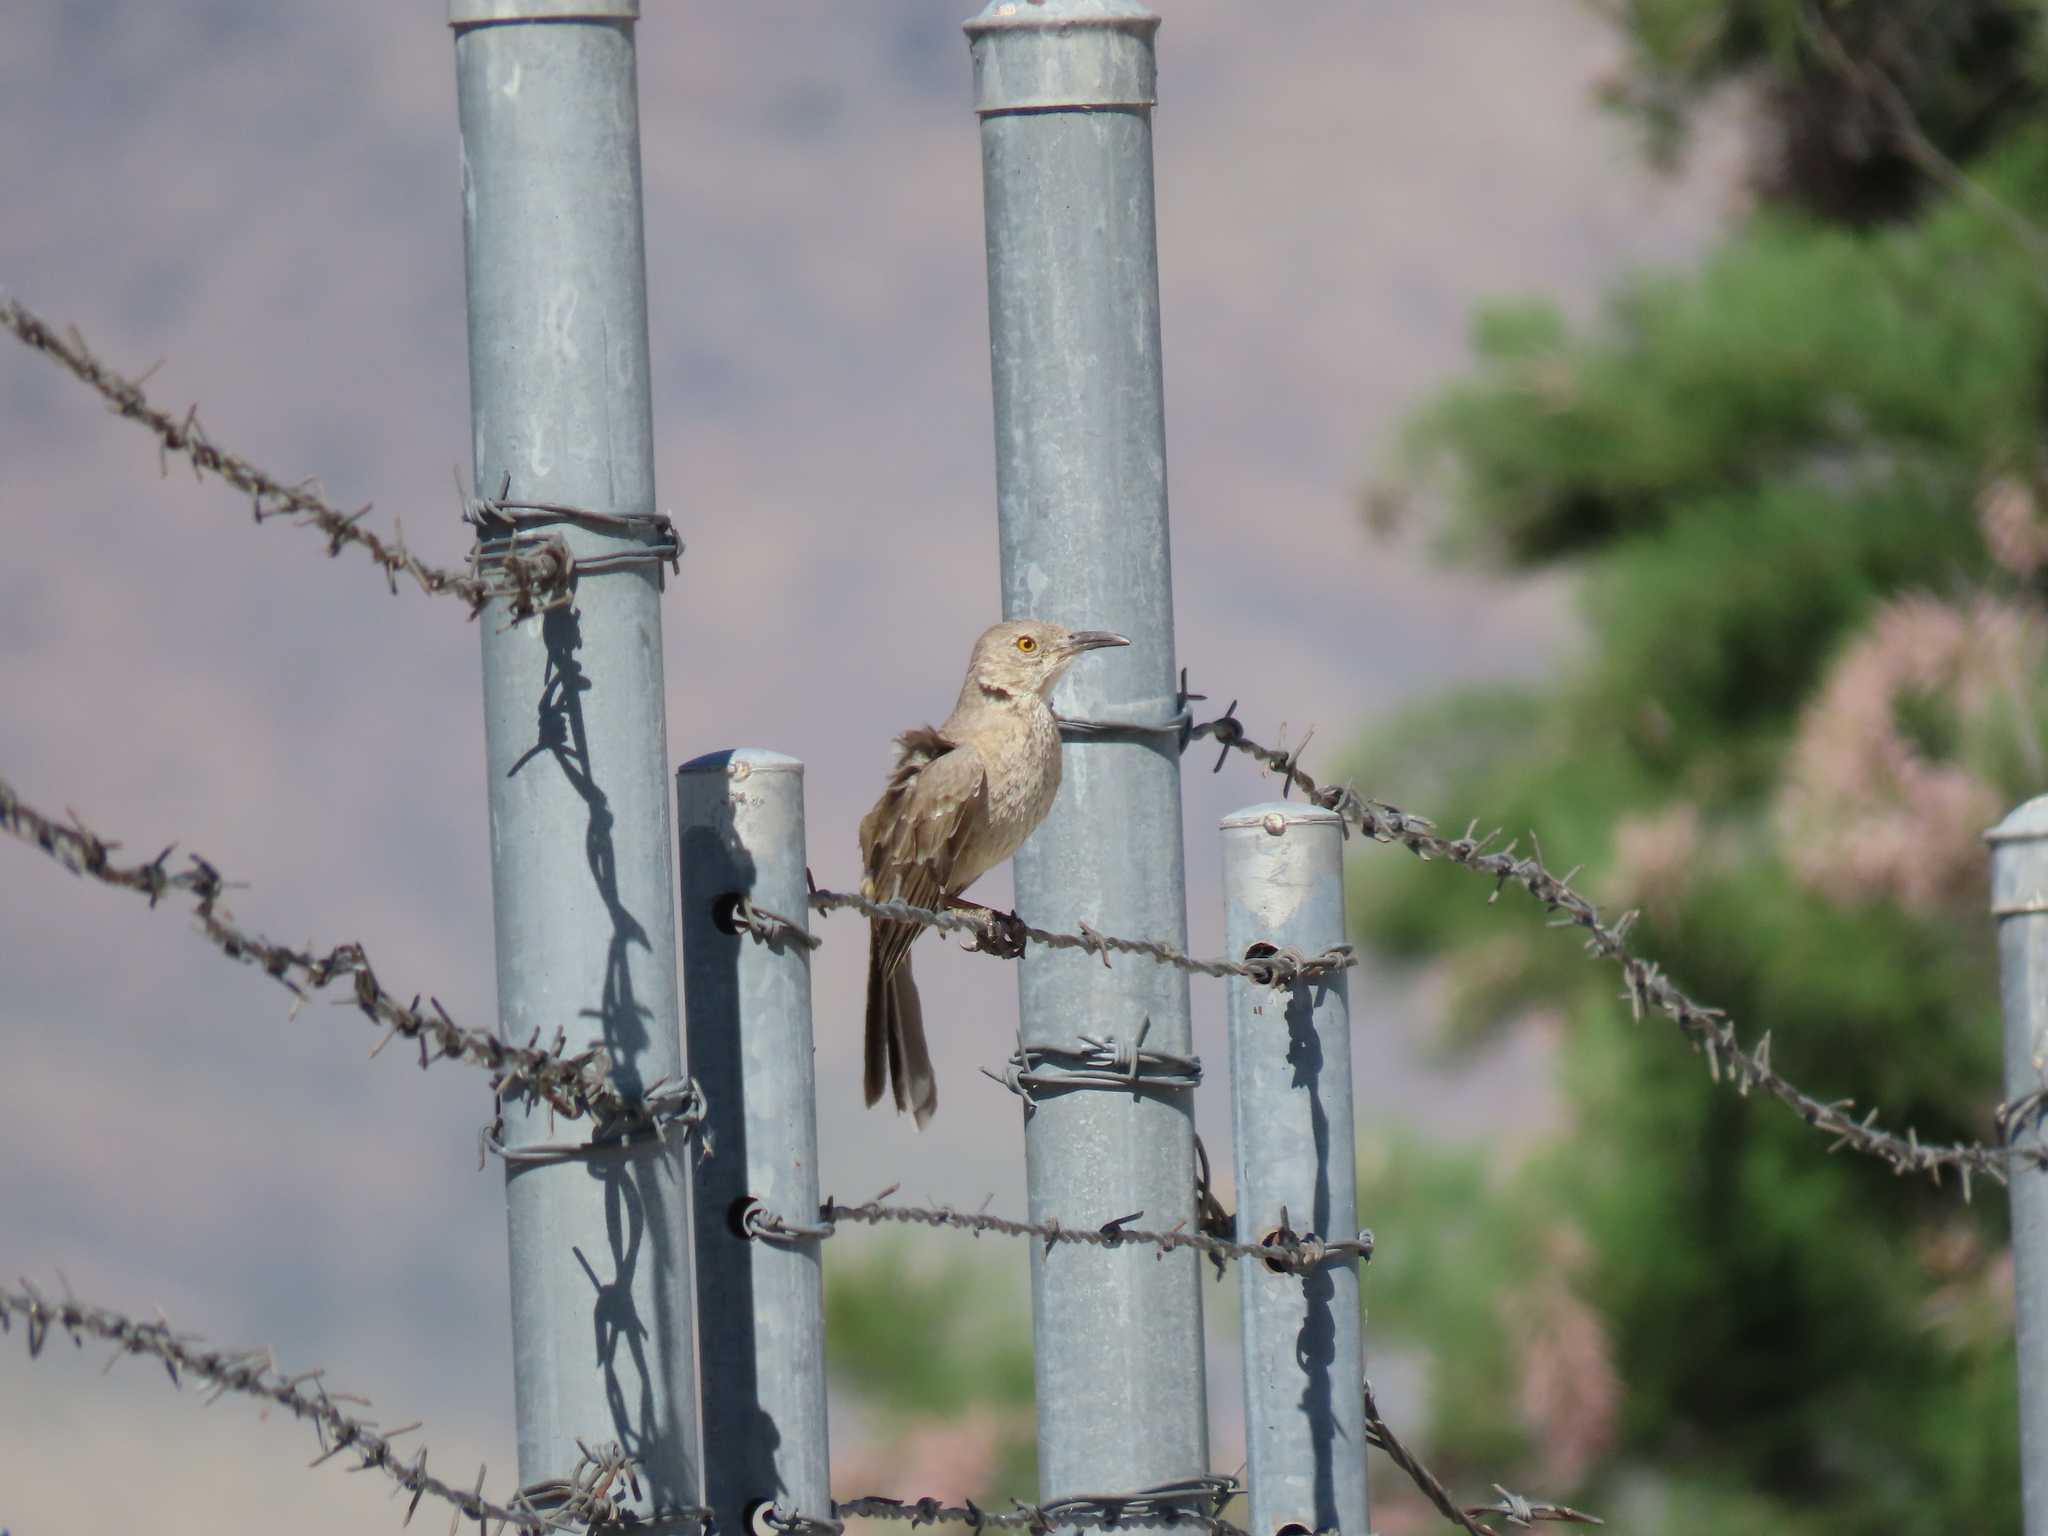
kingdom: Animalia
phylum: Chordata
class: Aves
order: Passeriformes
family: Mimidae
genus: Toxostoma
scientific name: Toxostoma bendirei
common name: Bendire's thrasher
